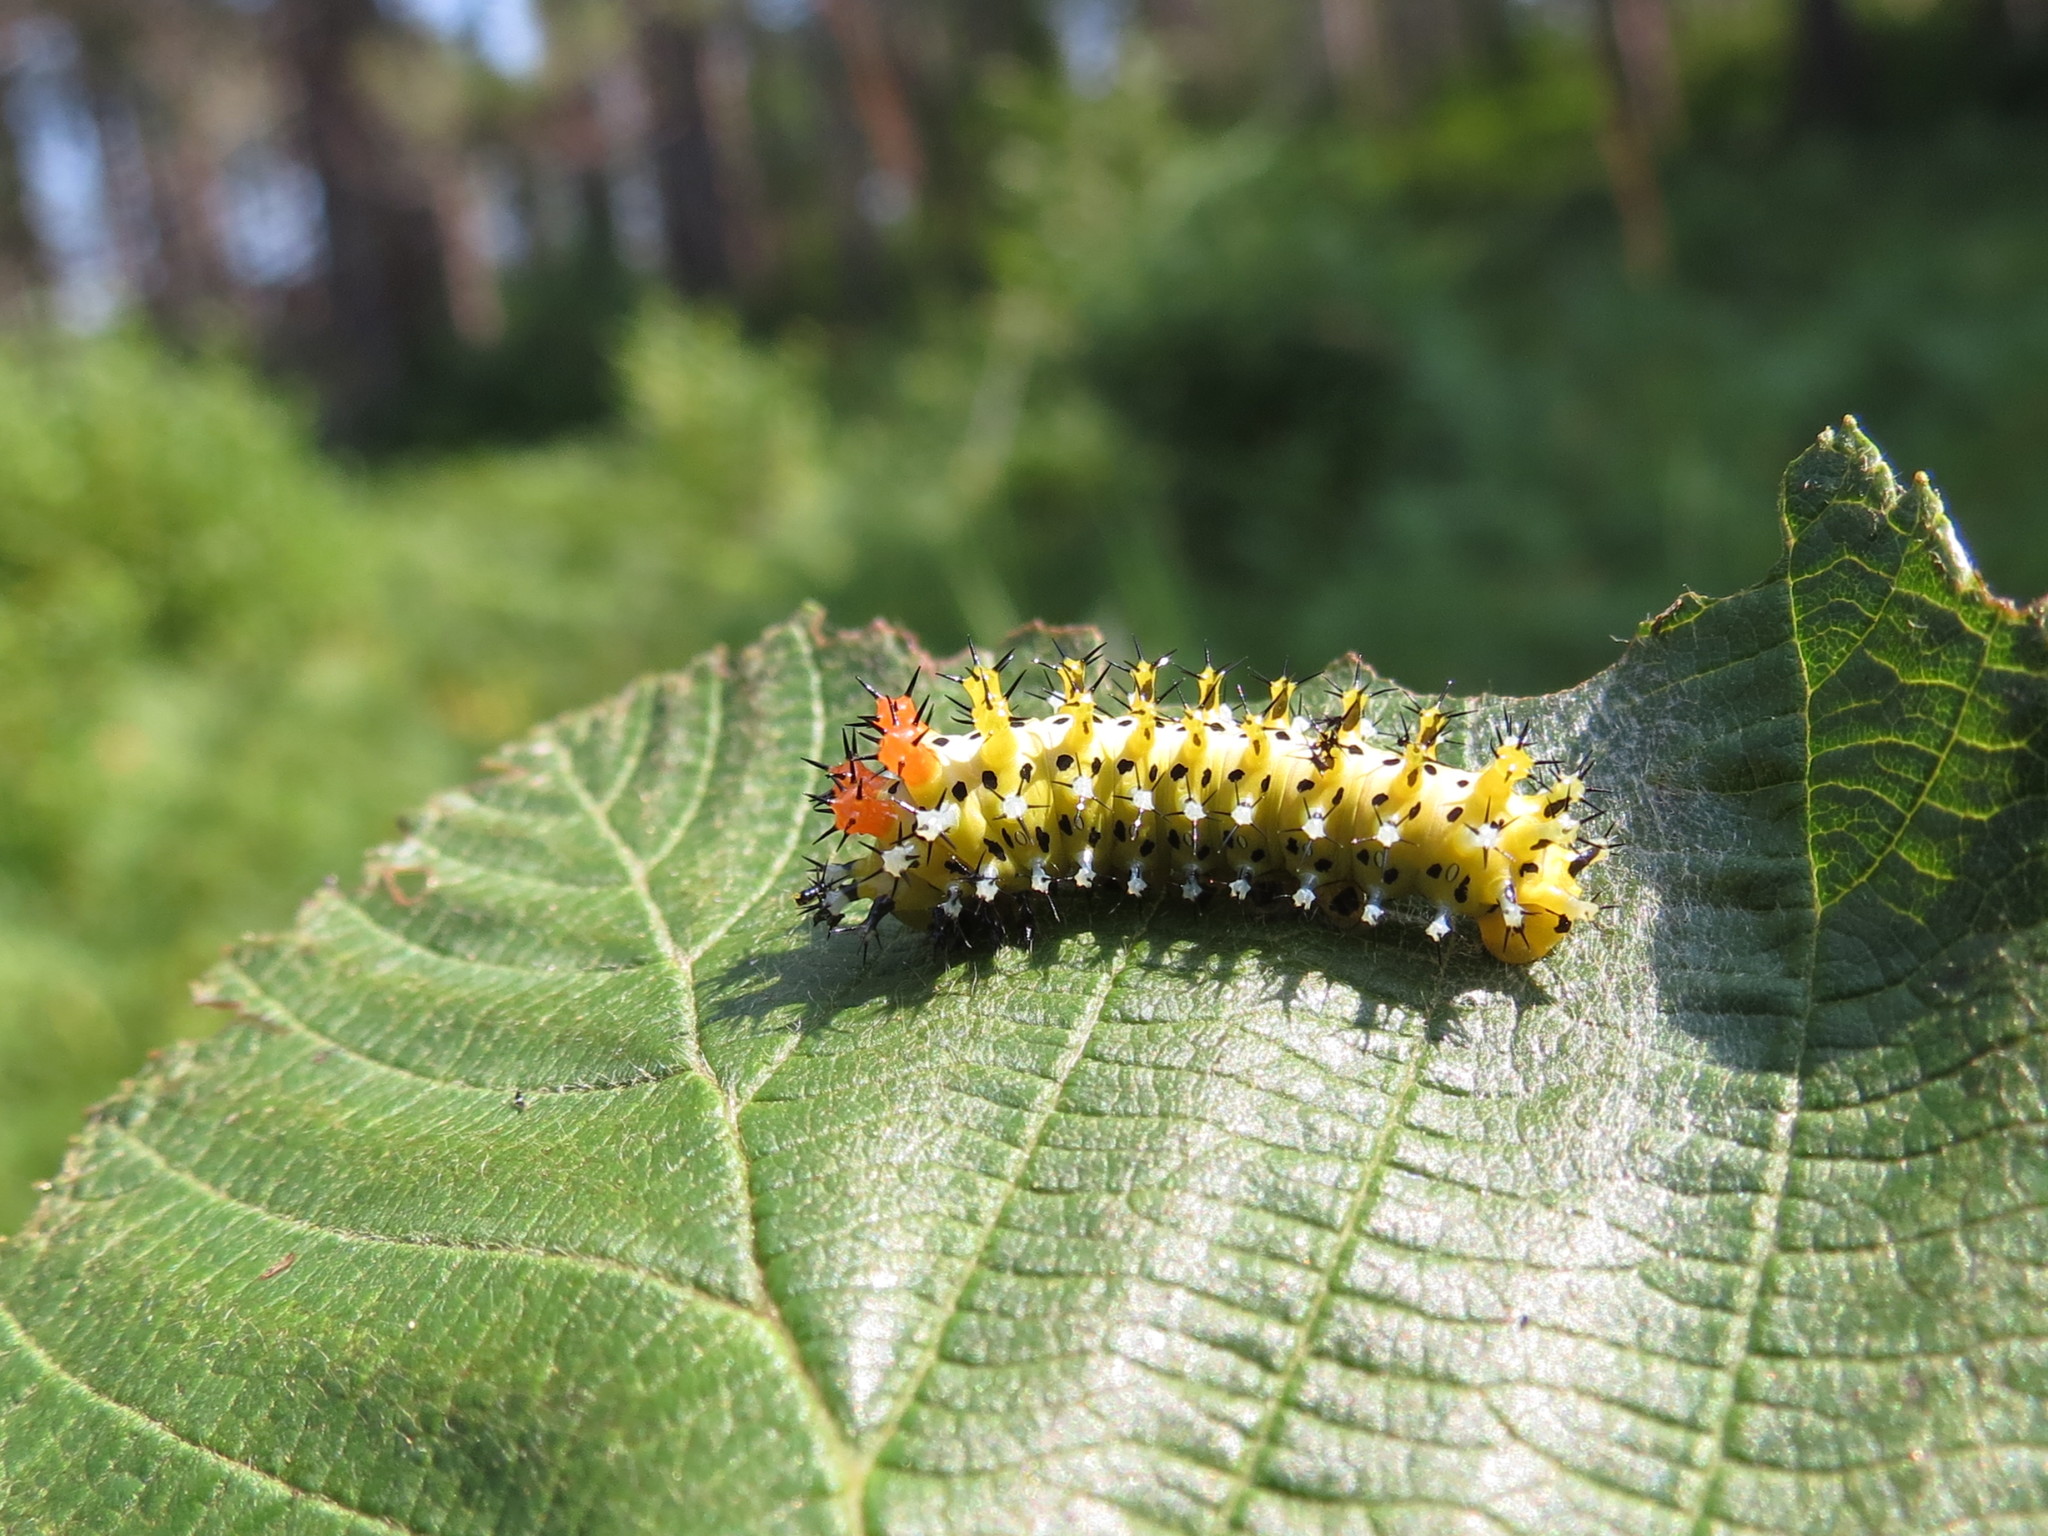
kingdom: Animalia
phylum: Arthropoda
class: Insecta
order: Lepidoptera
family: Saturniidae
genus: Hyalophora
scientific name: Hyalophora cecropia
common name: Cecropia silkmoth
